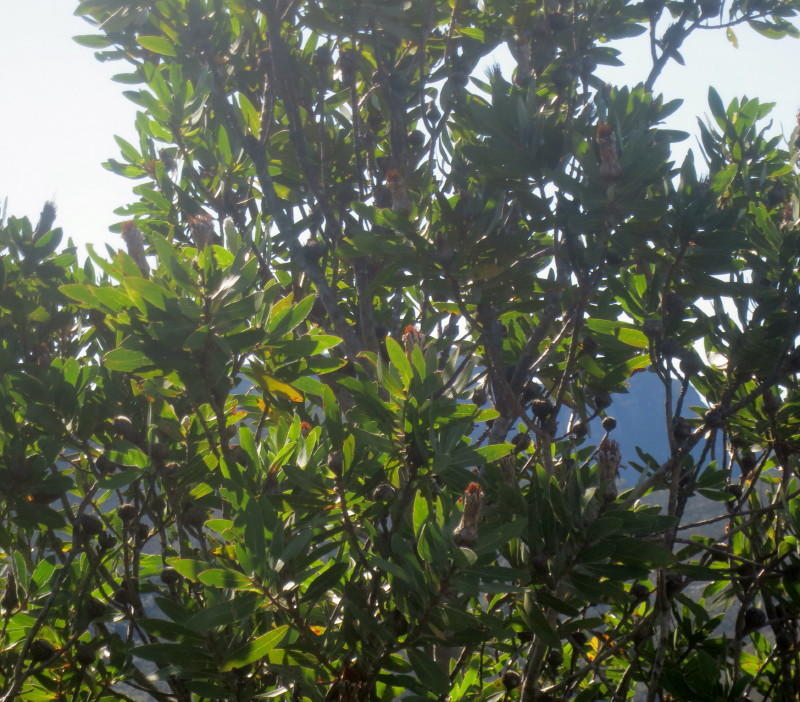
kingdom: Plantae
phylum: Tracheophyta
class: Magnoliopsida
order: Proteales
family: Proteaceae
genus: Protea
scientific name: Protea mundii
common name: Forest sugarbush
